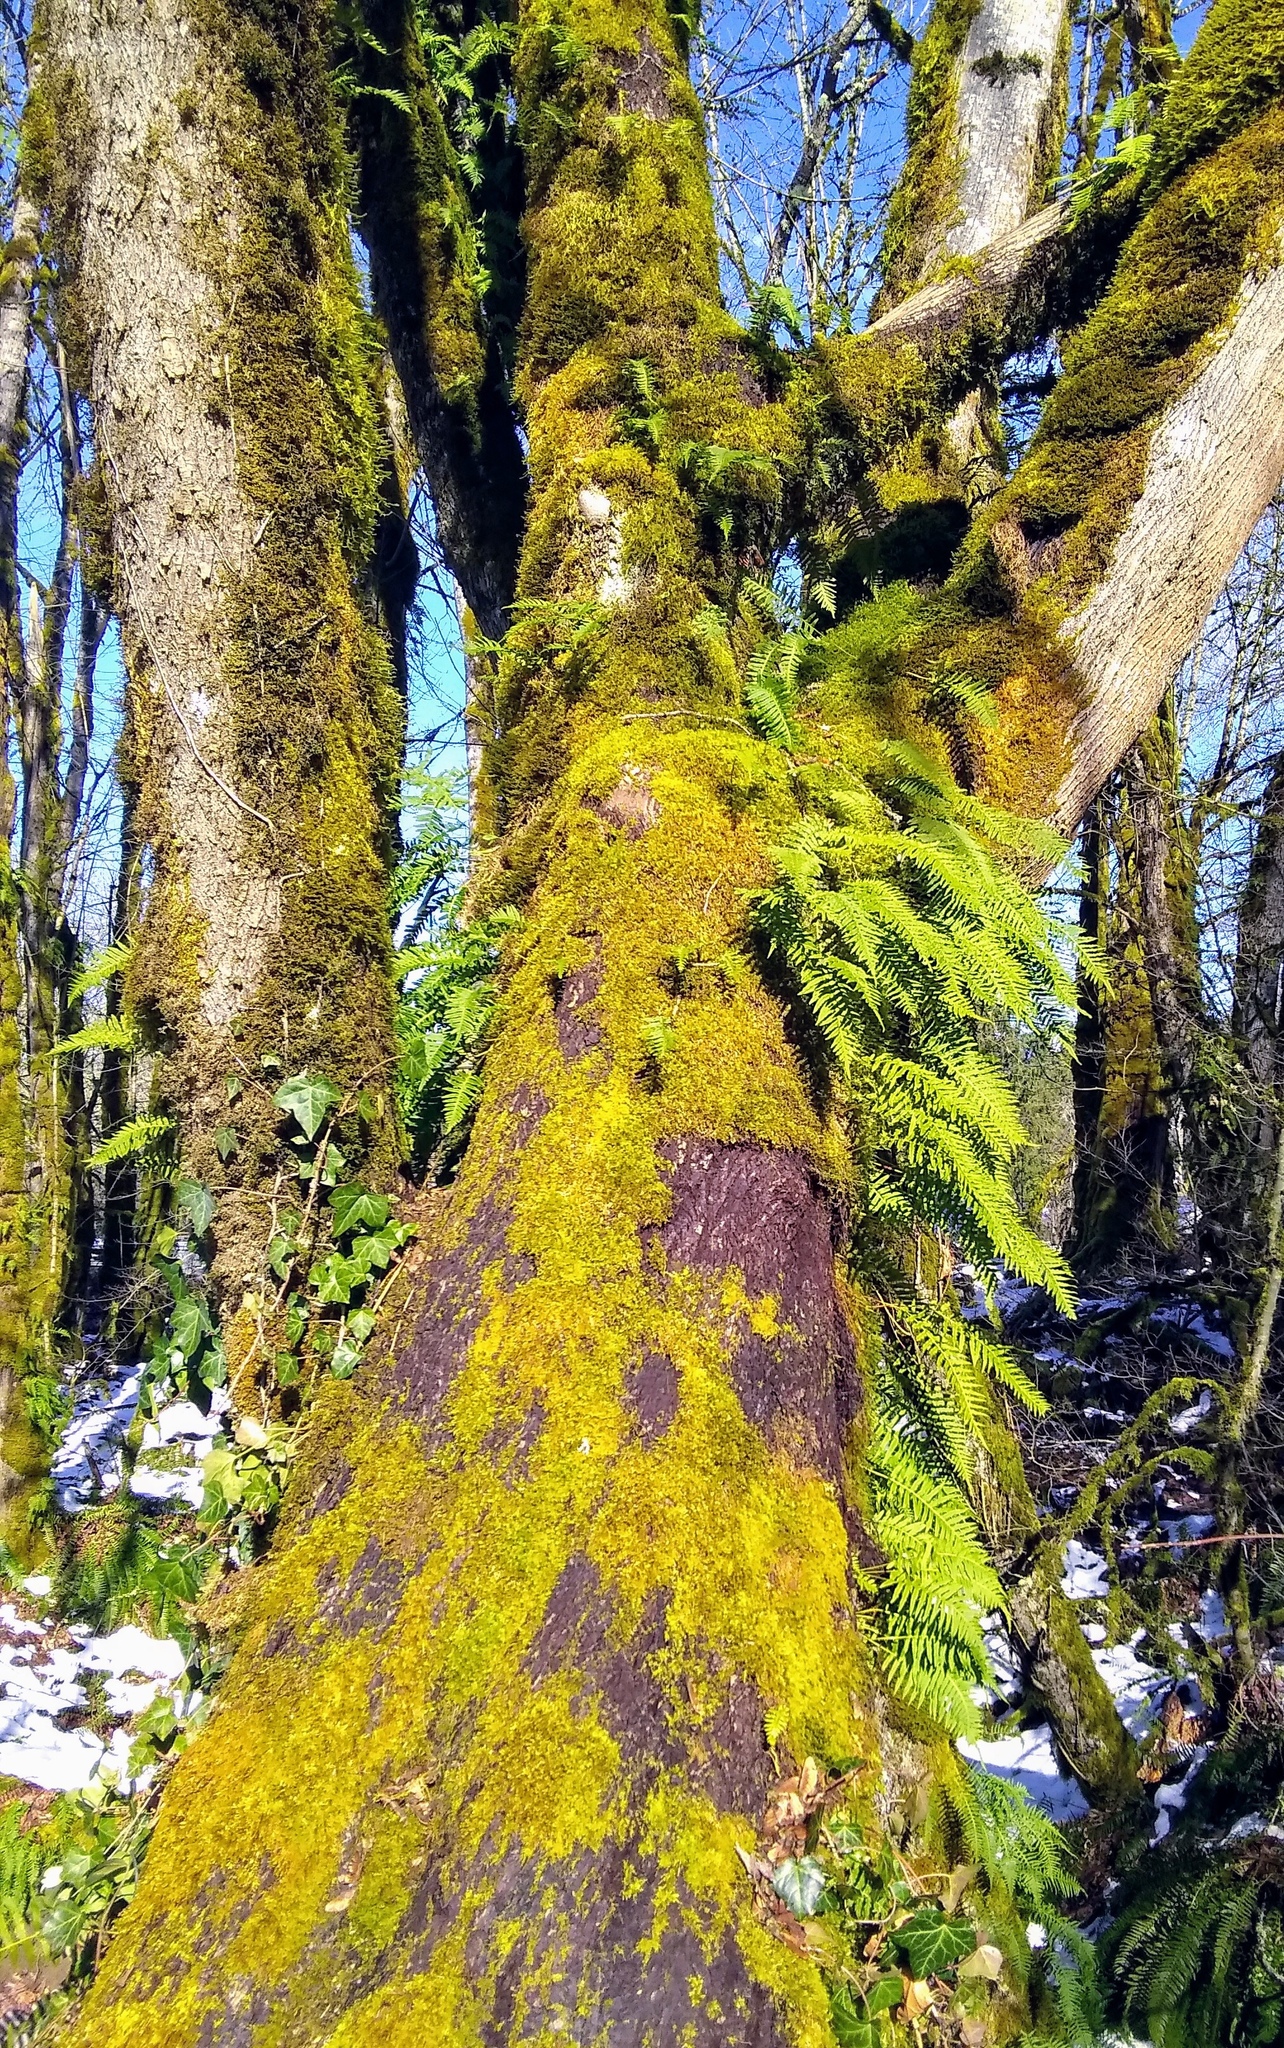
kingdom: Plantae
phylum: Tracheophyta
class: Polypodiopsida
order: Polypodiales
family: Polypodiaceae
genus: Polypodium
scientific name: Polypodium glycyrrhiza
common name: Licorice fern
